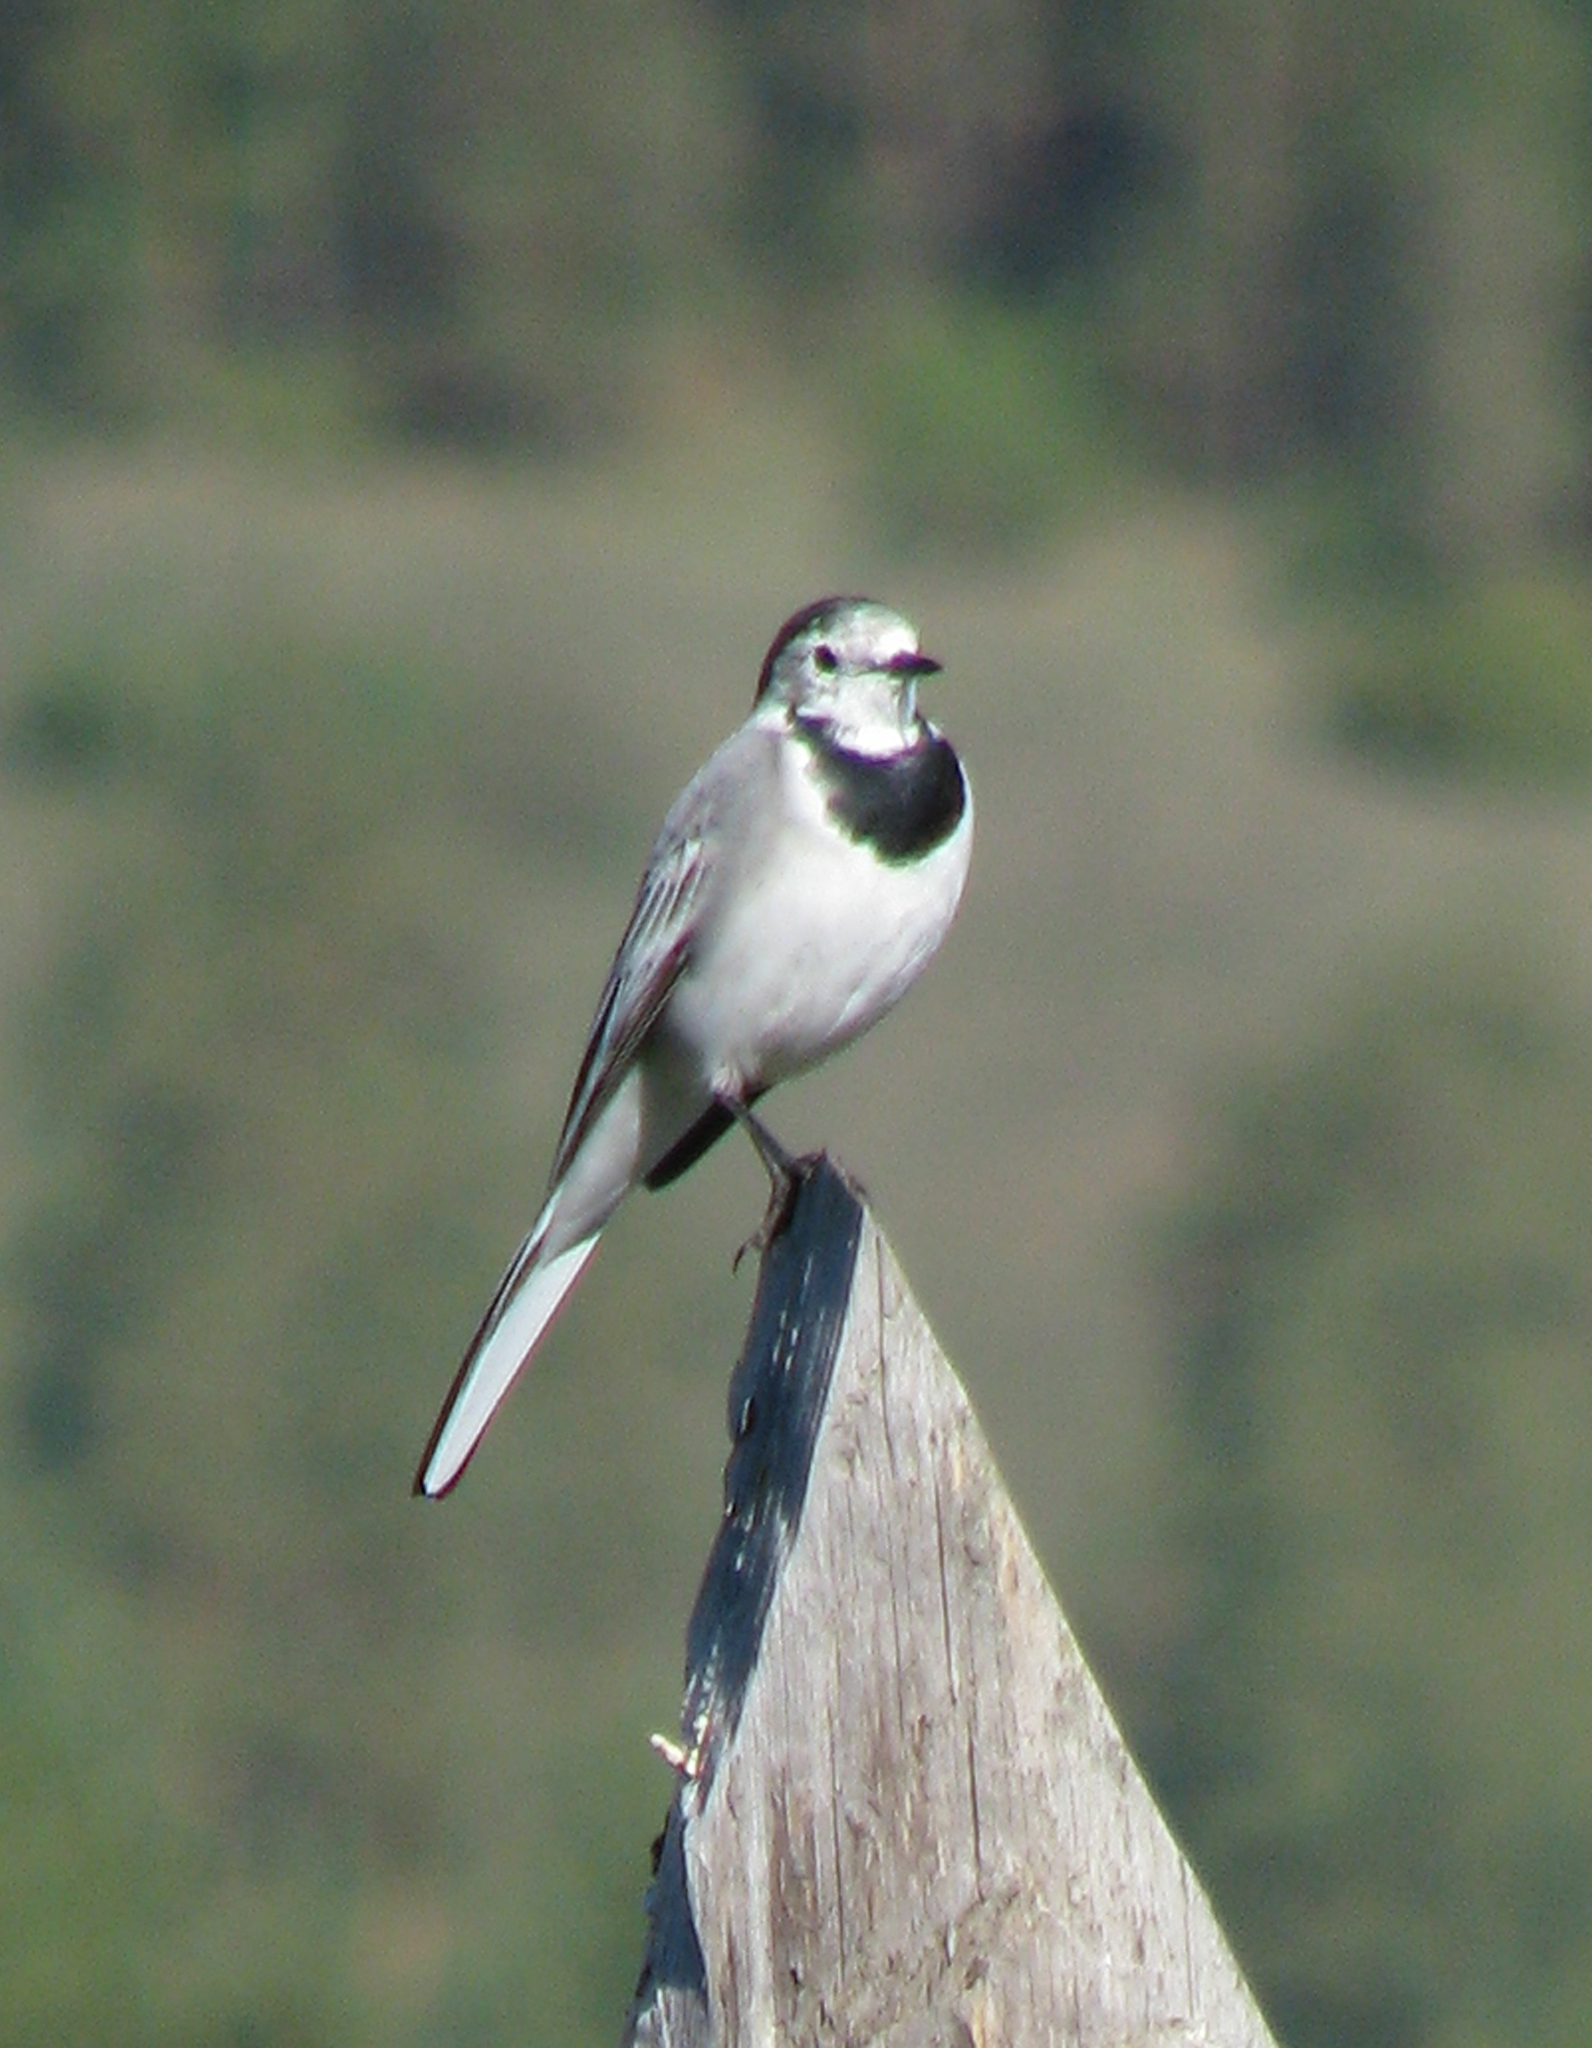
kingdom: Animalia
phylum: Chordata
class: Aves
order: Passeriformes
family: Motacillidae
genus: Motacilla
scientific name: Motacilla alba
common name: White wagtail
